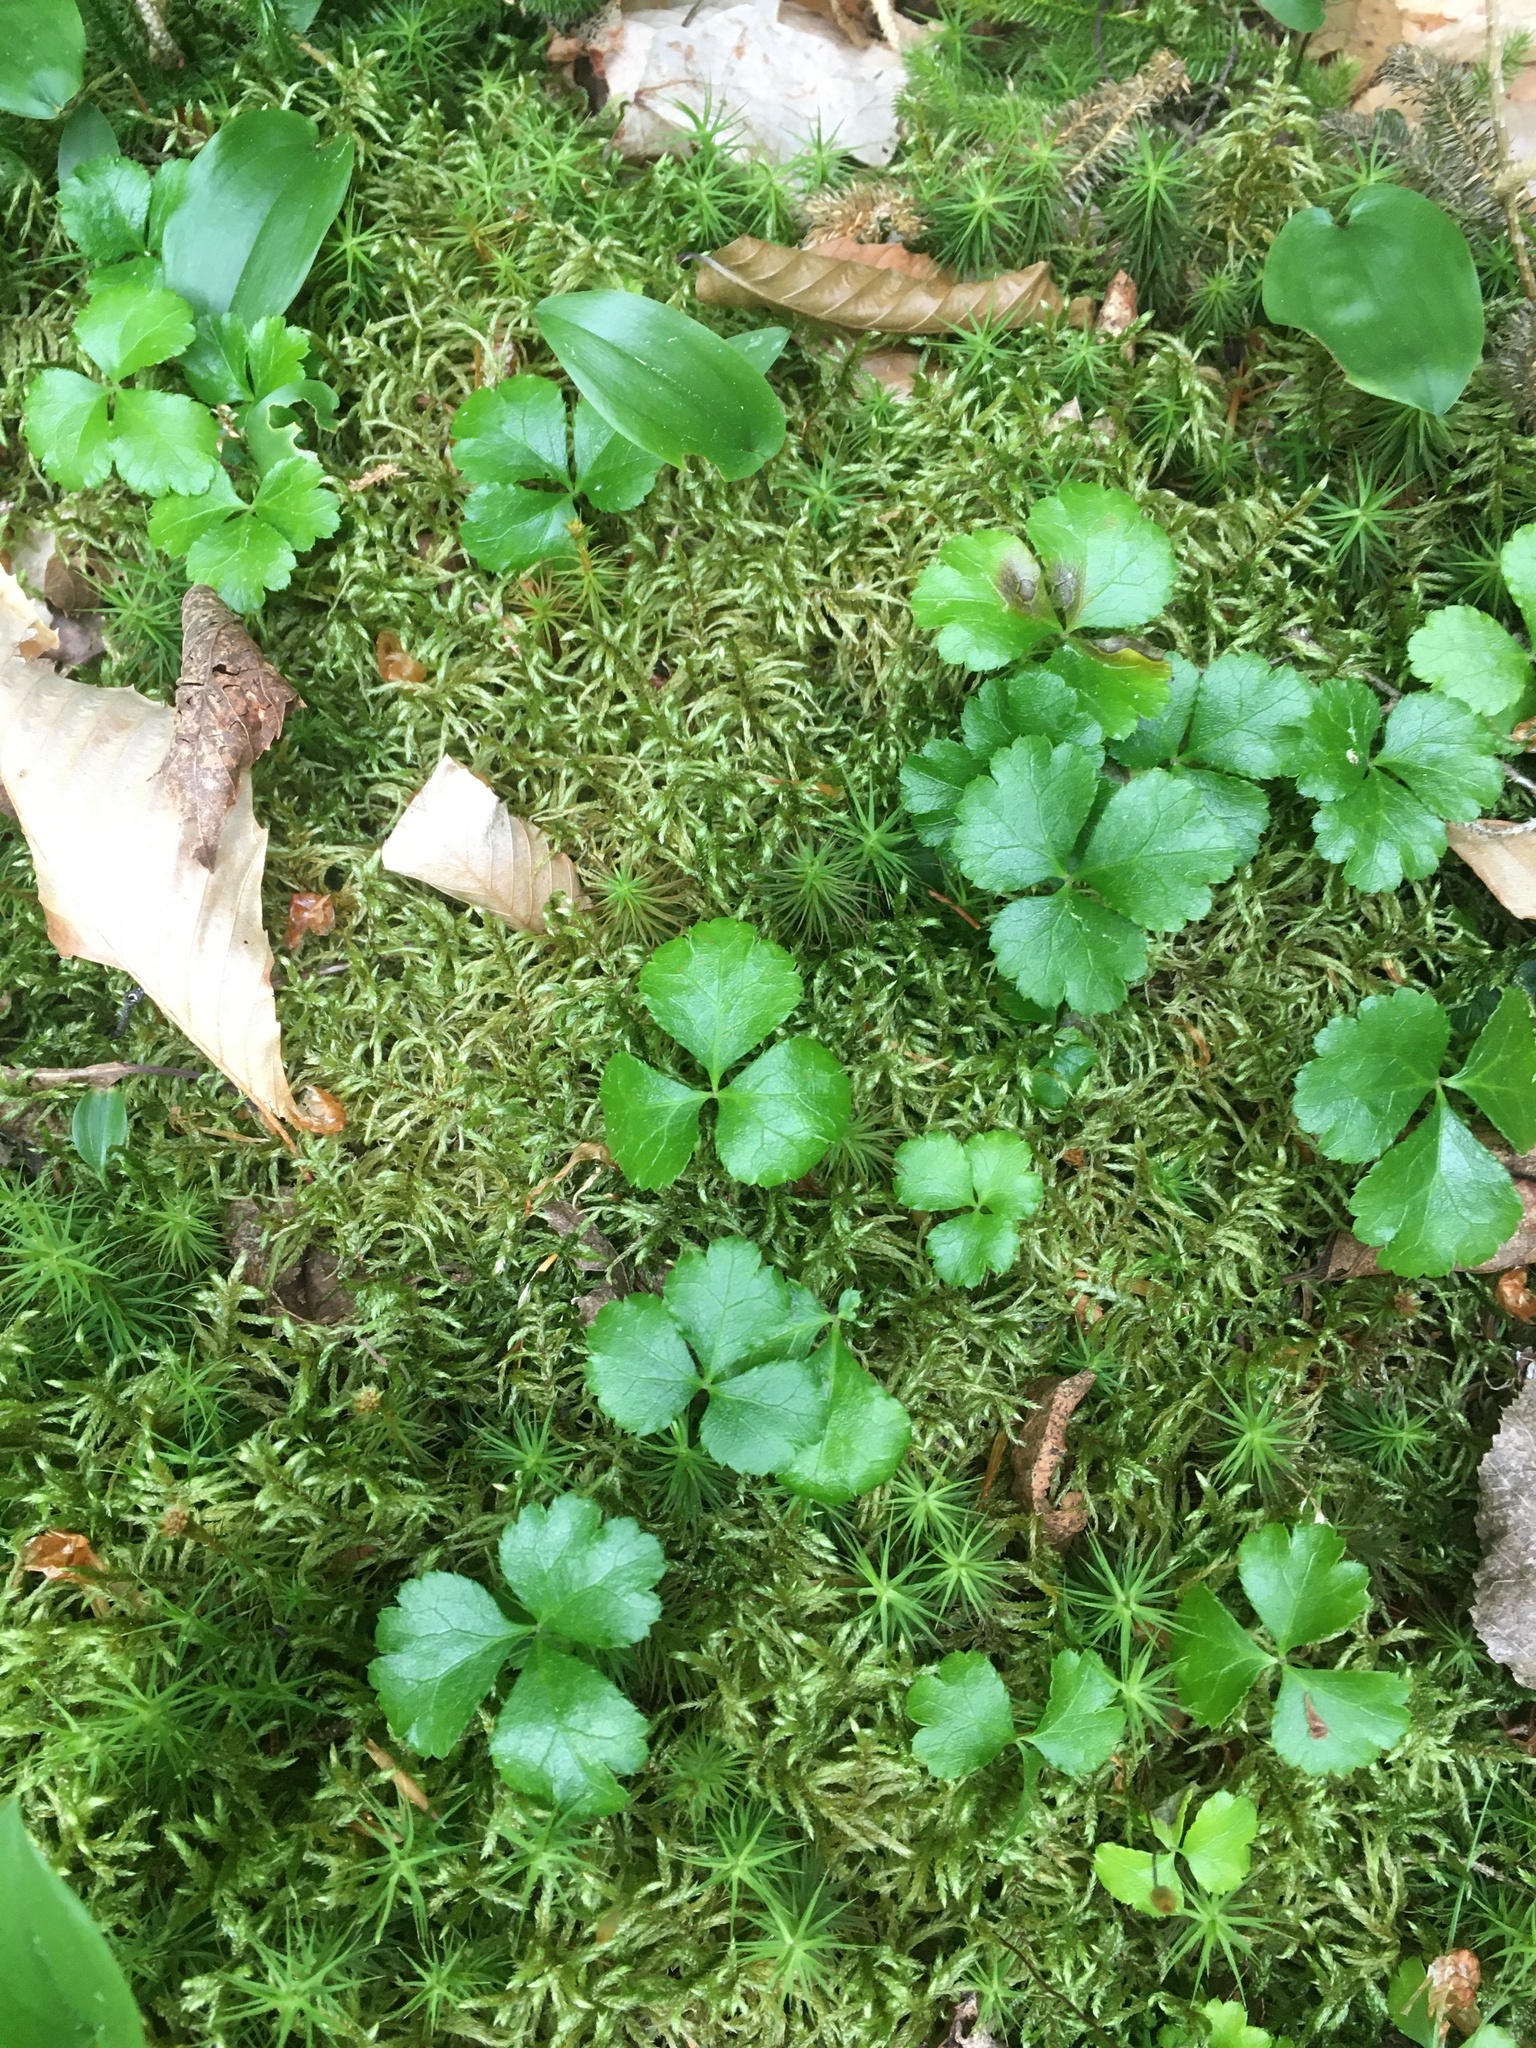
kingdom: Plantae
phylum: Tracheophyta
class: Magnoliopsida
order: Ranunculales
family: Ranunculaceae
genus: Coptis
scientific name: Coptis trifolia
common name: Canker-root
